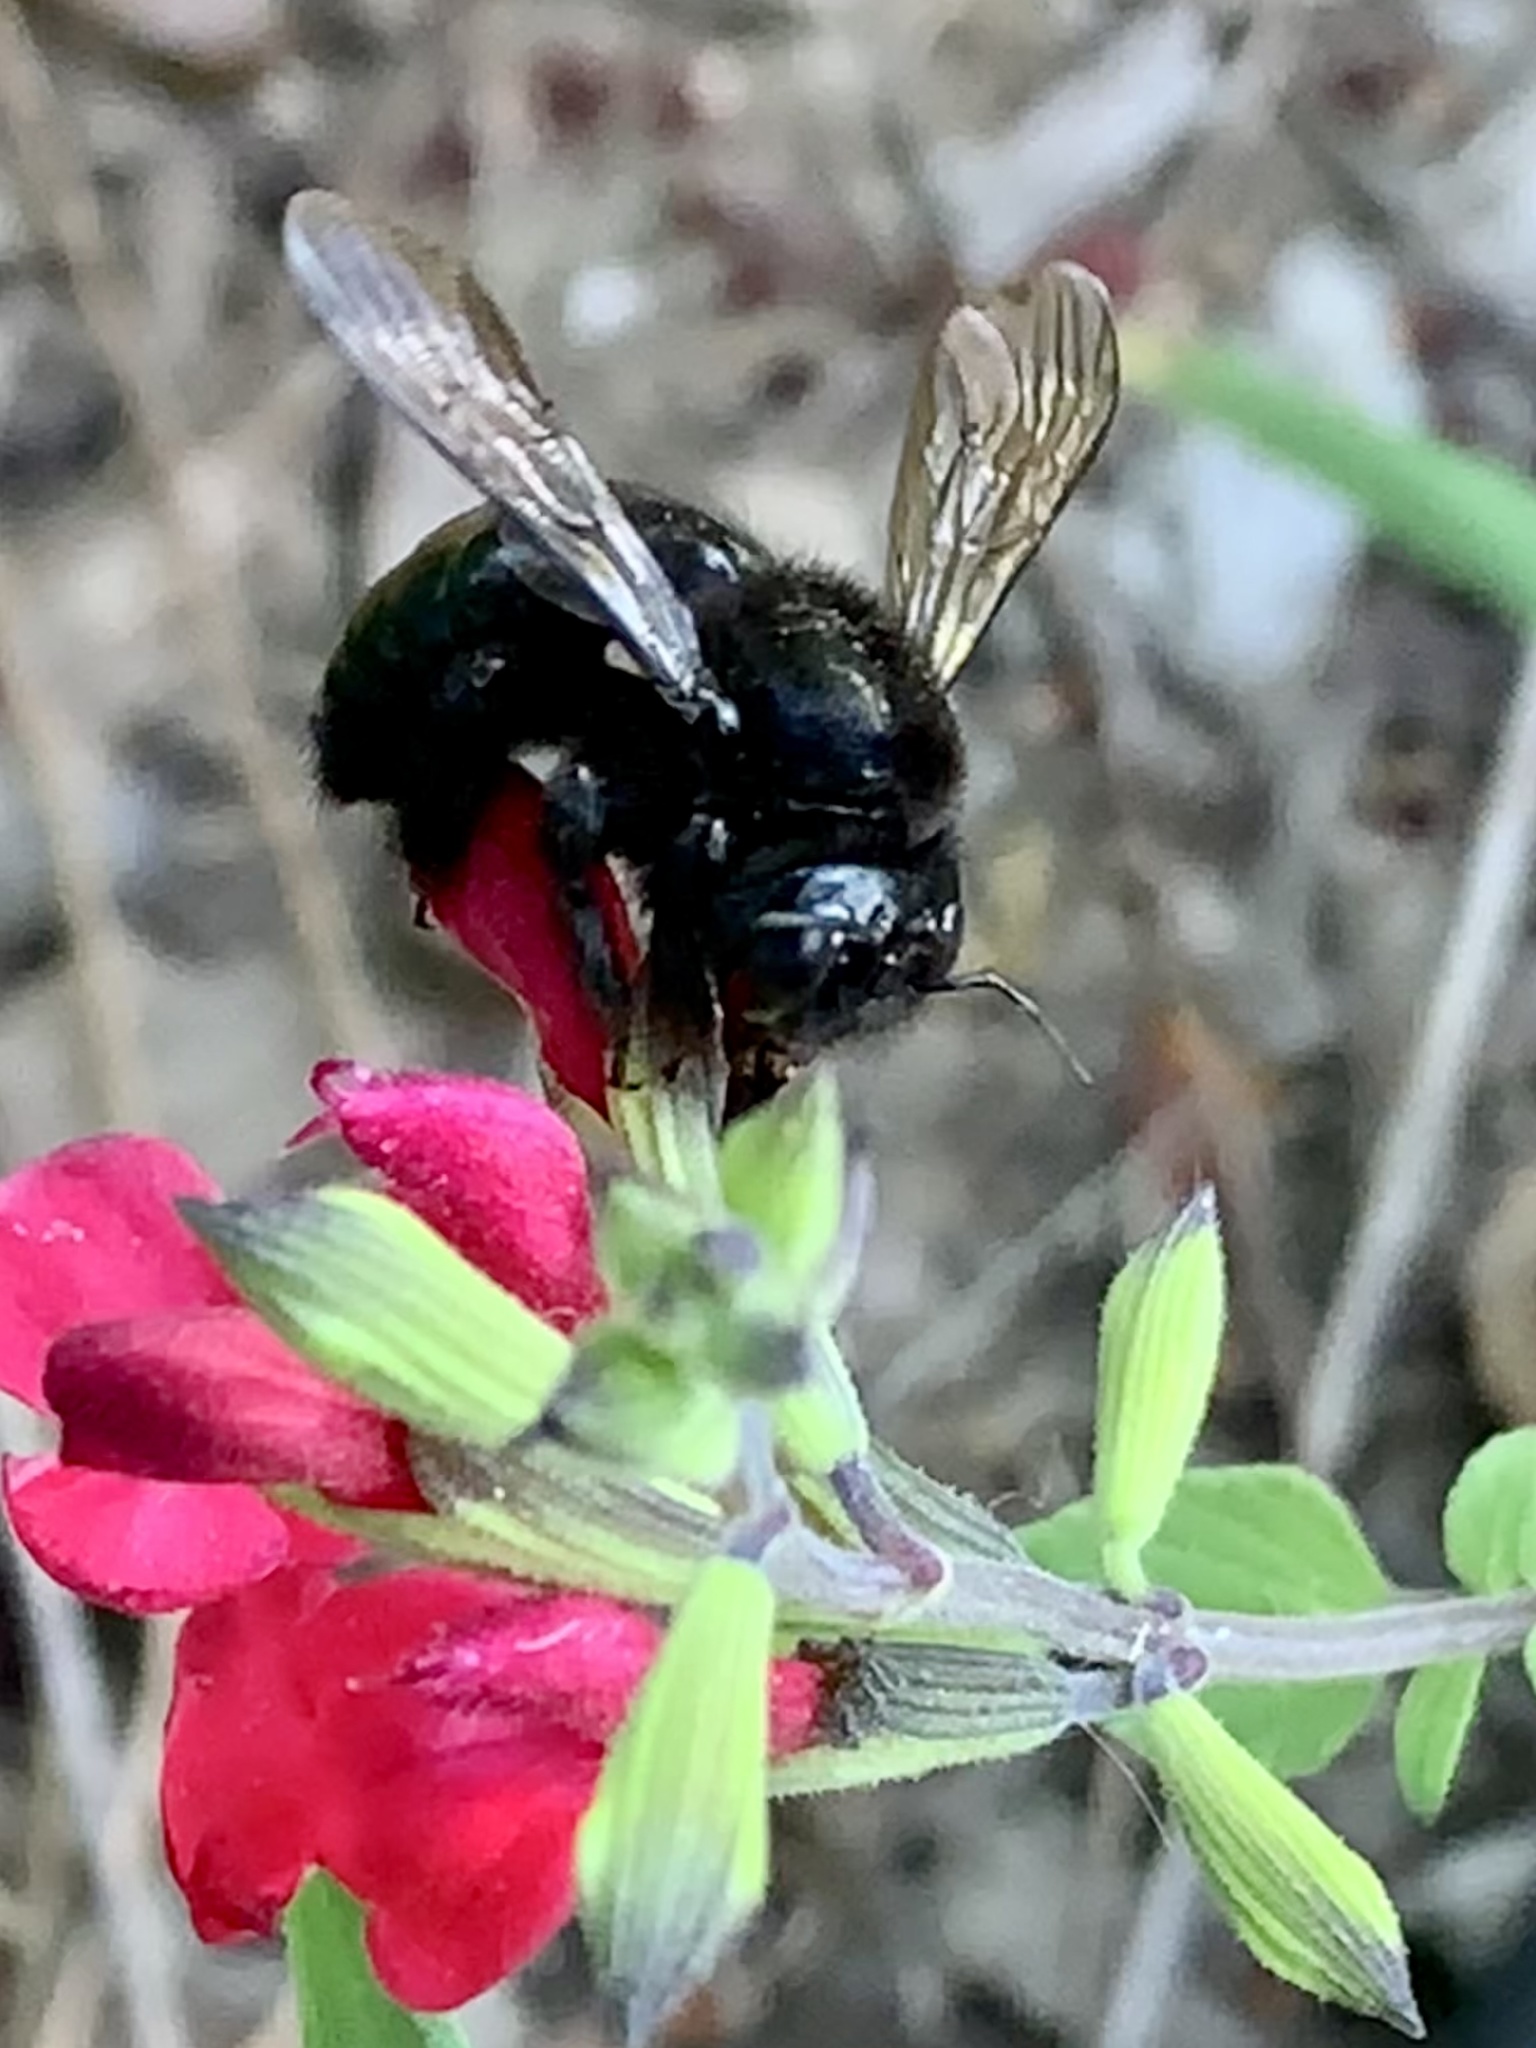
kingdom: Animalia
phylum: Arthropoda
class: Insecta
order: Hymenoptera
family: Apidae
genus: Xylocopa
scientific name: Xylocopa tabaniformis
